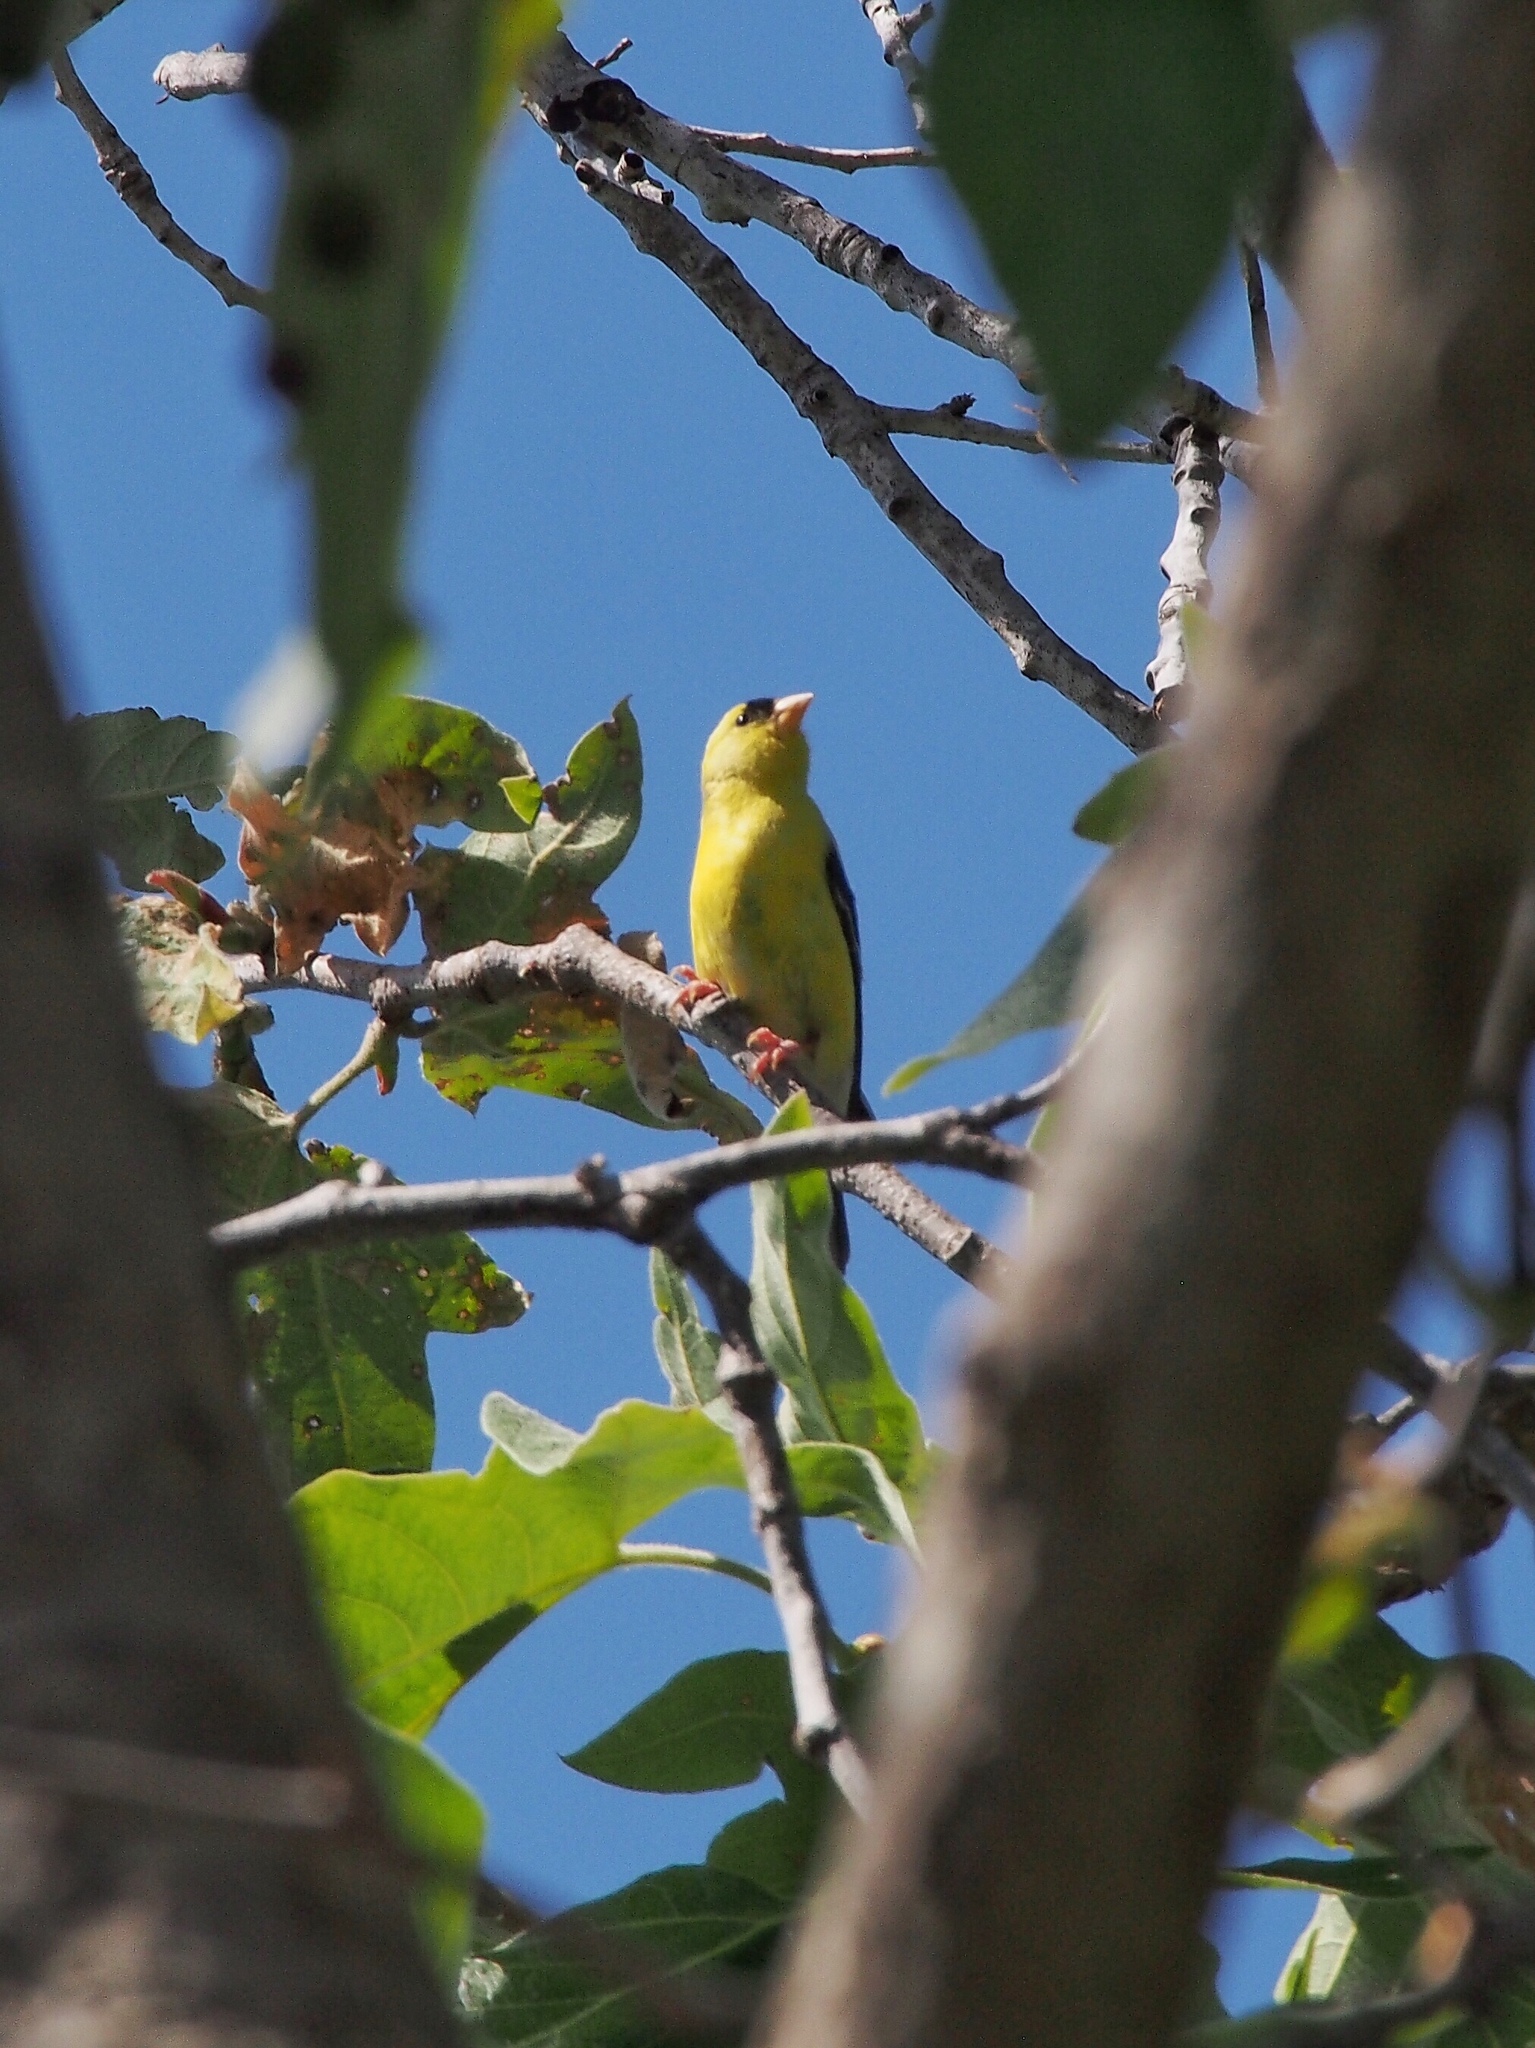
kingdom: Animalia
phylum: Chordata
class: Aves
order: Passeriformes
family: Fringillidae
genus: Spinus
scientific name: Spinus tristis
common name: American goldfinch
